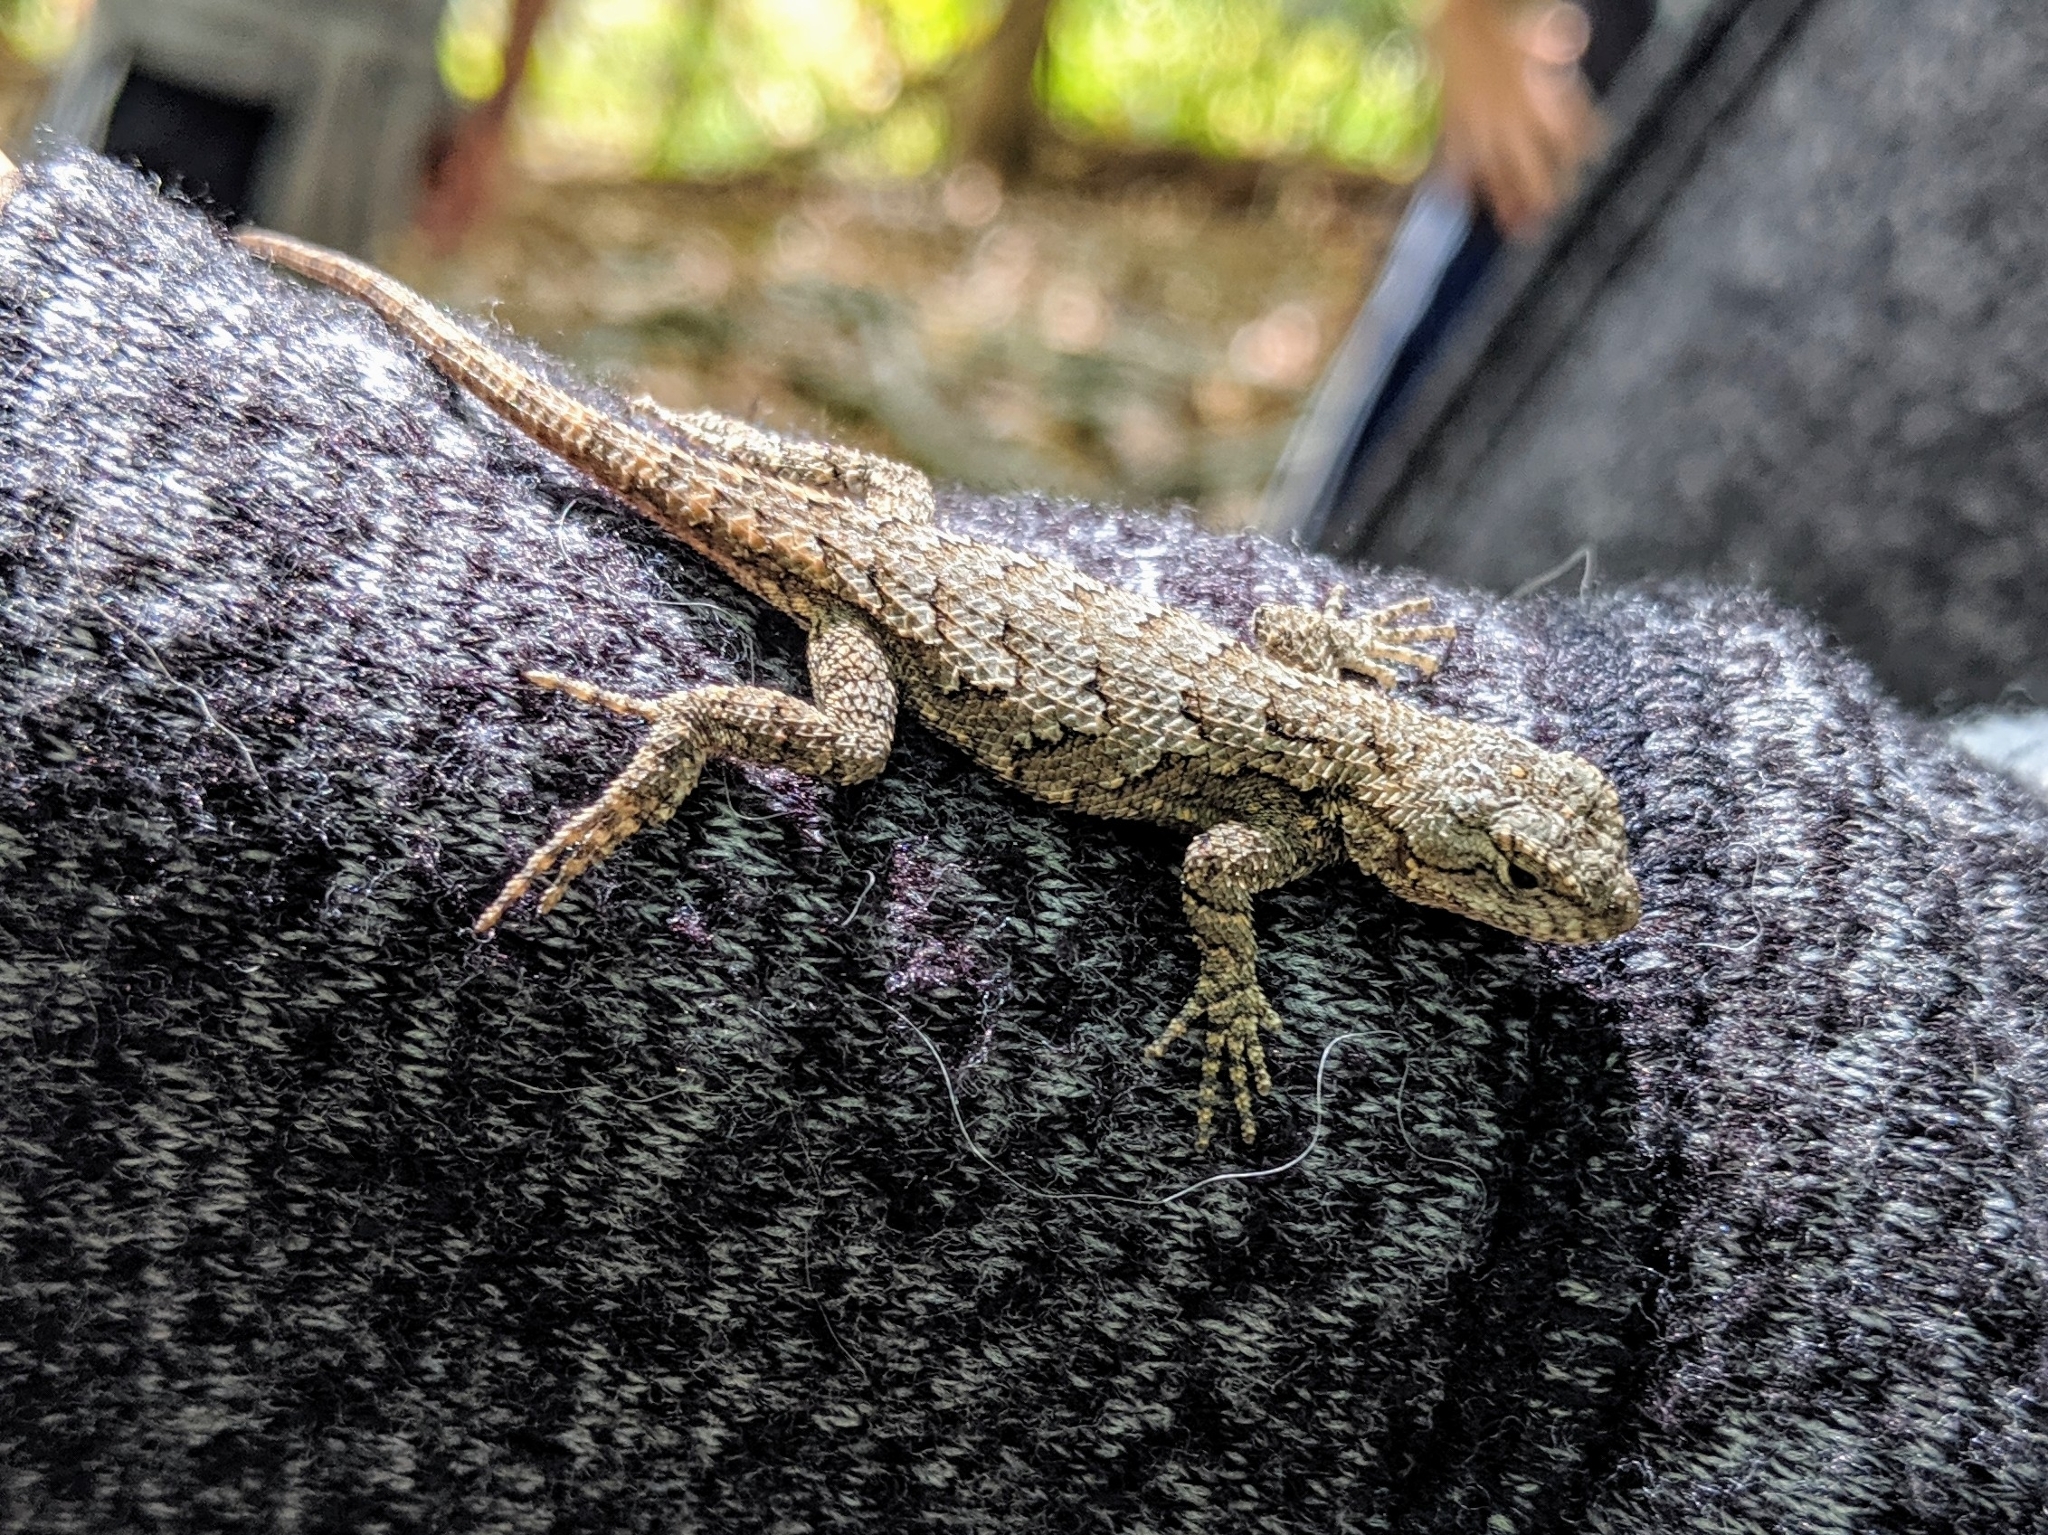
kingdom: Animalia
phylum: Chordata
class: Squamata
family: Phrynosomatidae
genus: Sceloporus
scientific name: Sceloporus undulatus
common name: Eastern fence lizard
